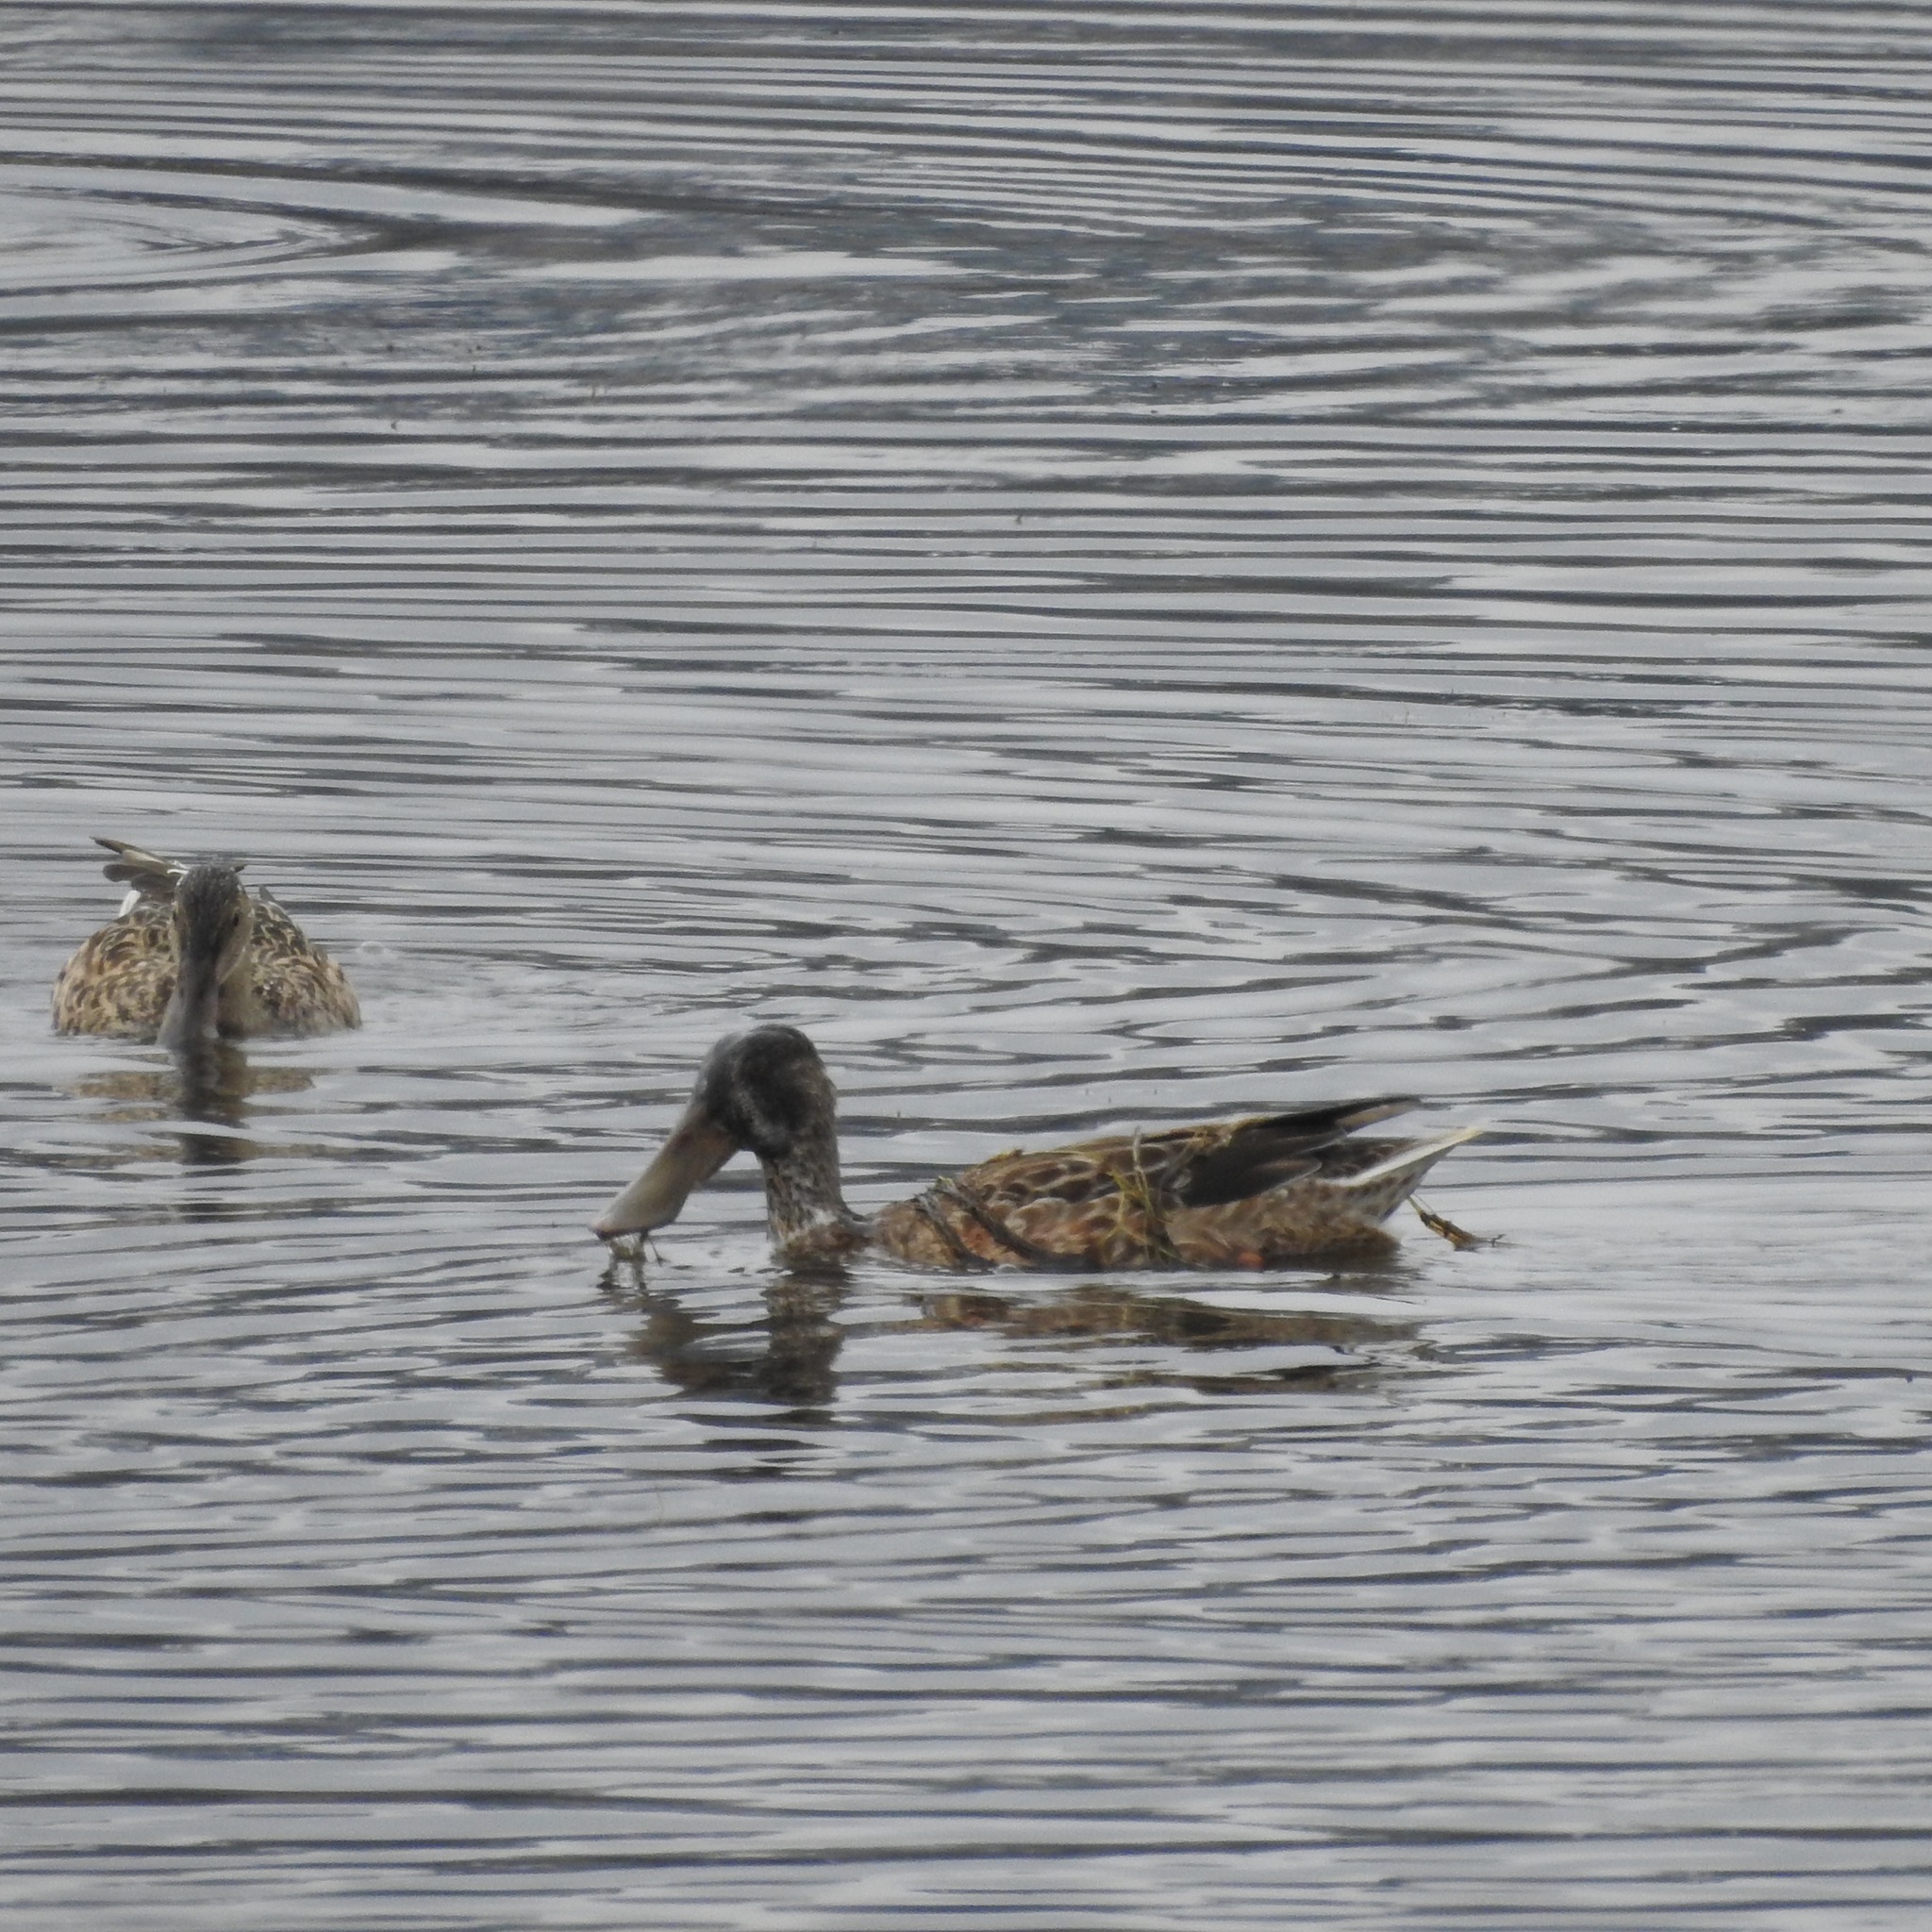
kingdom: Animalia
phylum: Chordata
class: Aves
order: Anseriformes
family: Anatidae
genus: Spatula
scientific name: Spatula clypeata
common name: Northern shoveler
